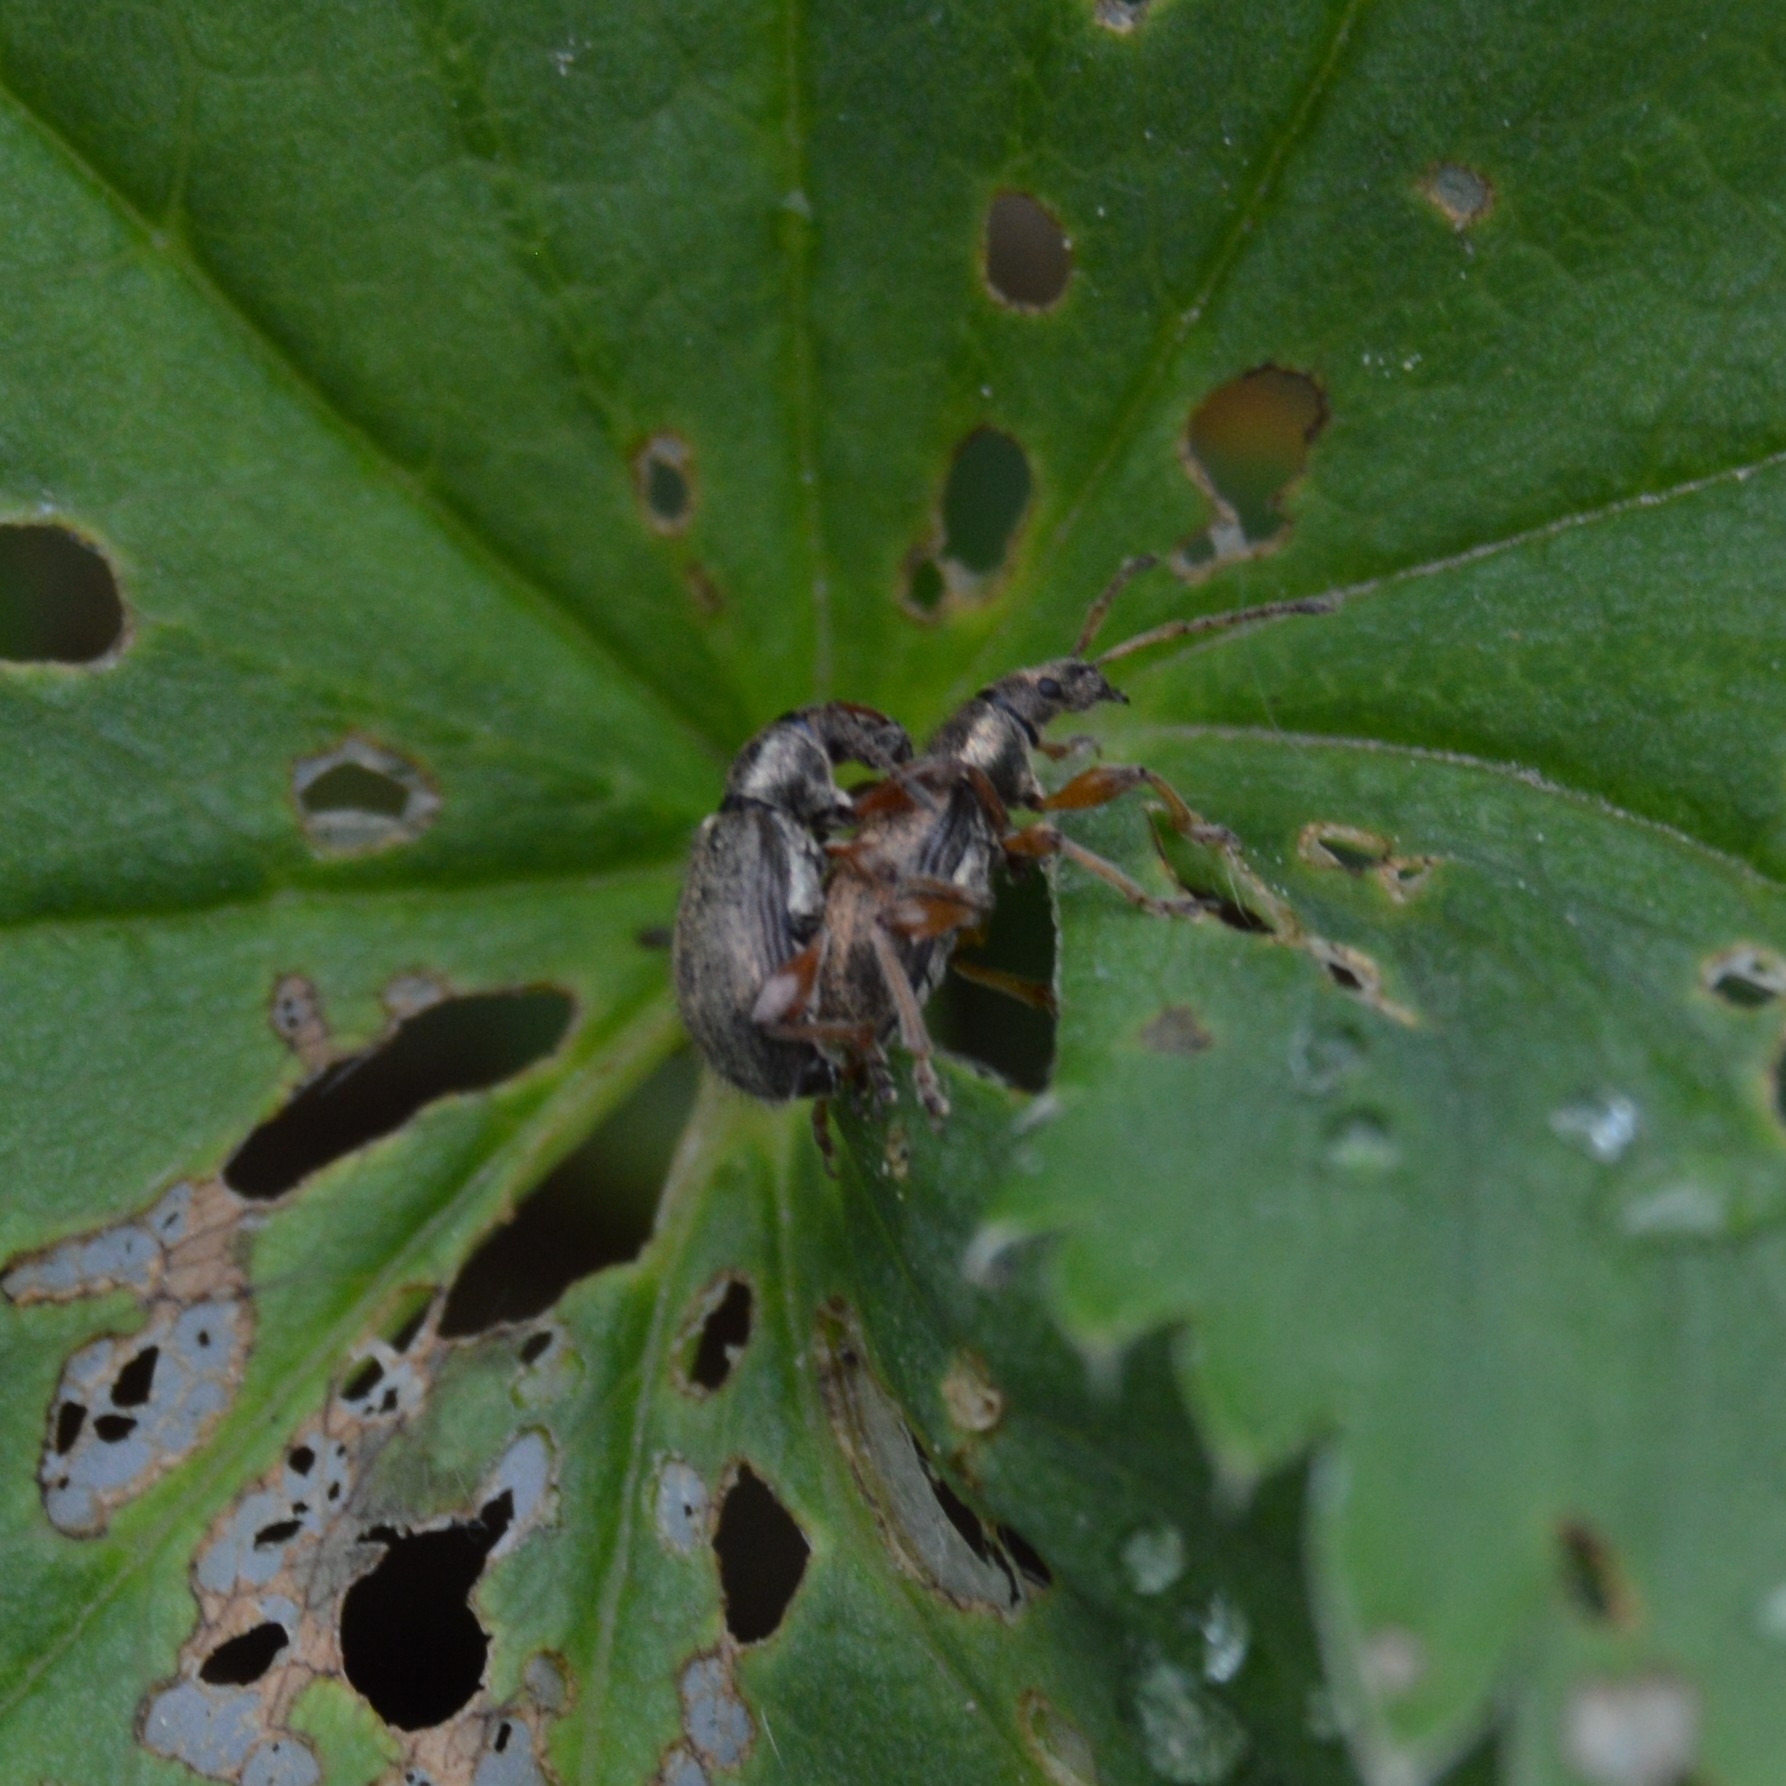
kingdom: Animalia
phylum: Arthropoda
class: Insecta
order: Coleoptera
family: Curculionidae
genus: Phyllobius
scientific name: Phyllobius contemptus
